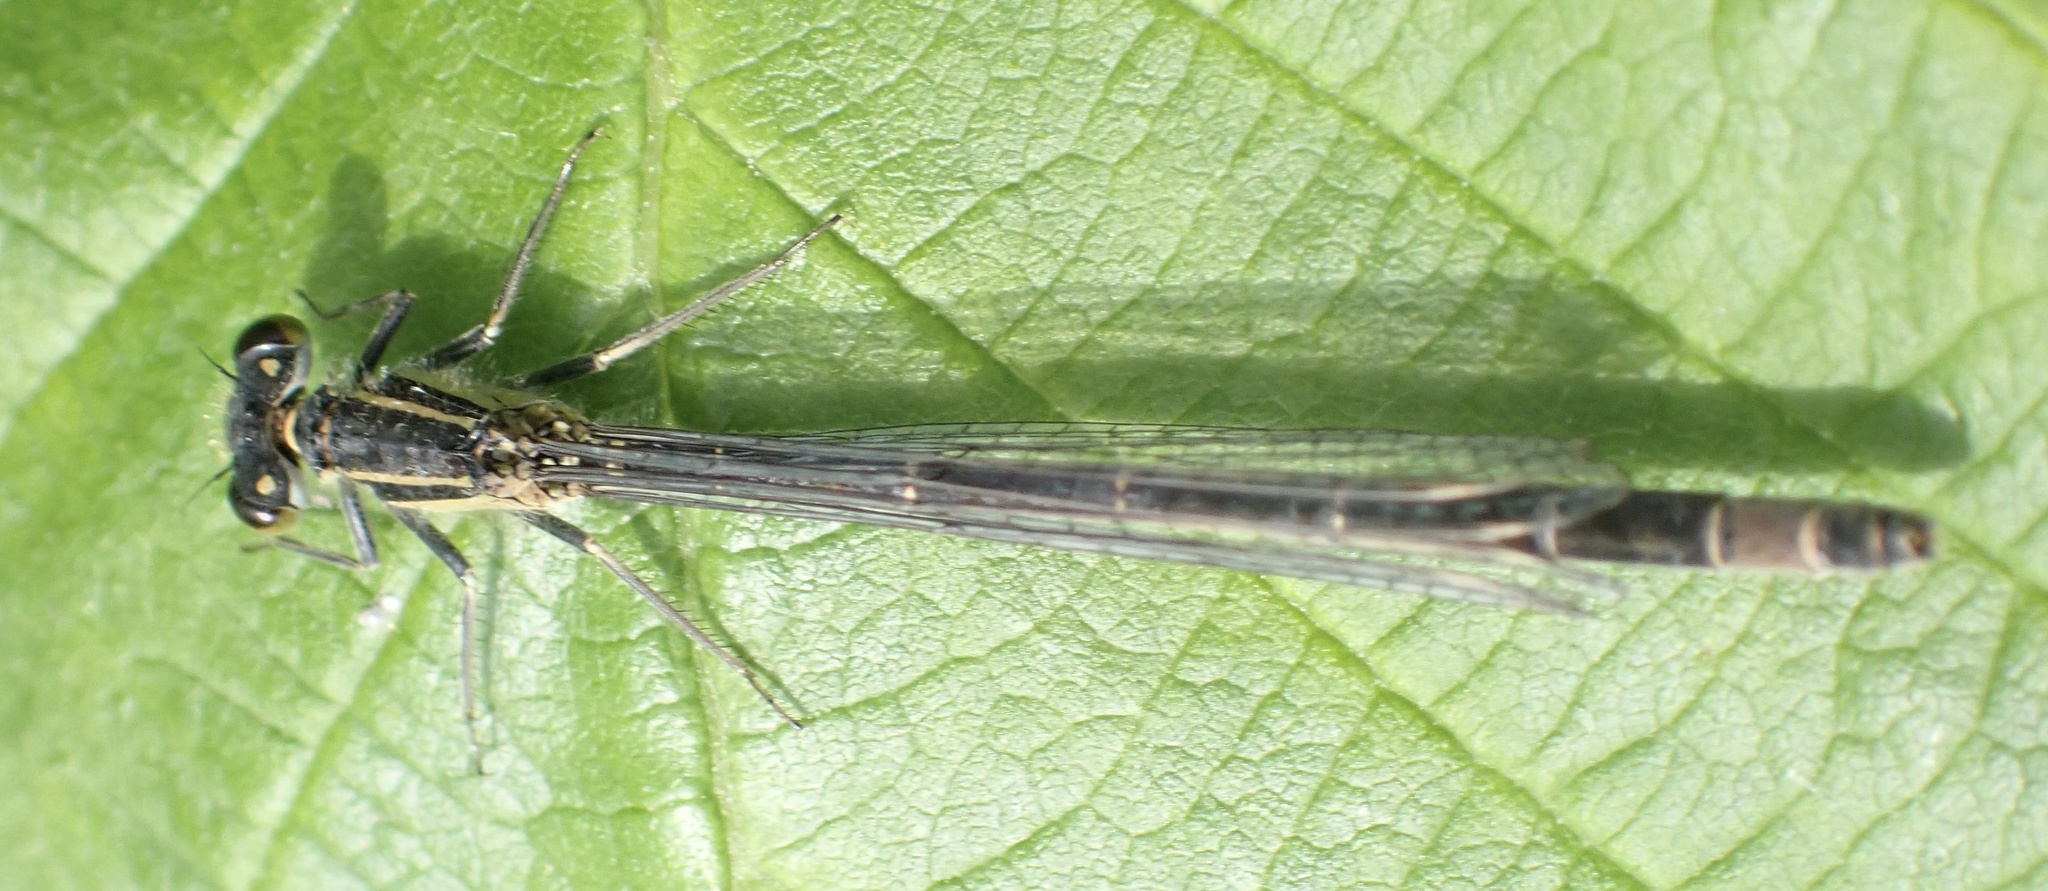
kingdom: Animalia
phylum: Arthropoda
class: Insecta
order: Odonata
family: Coenagrionidae
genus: Ischnura
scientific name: Ischnura elegans
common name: Blue-tailed damselfly
